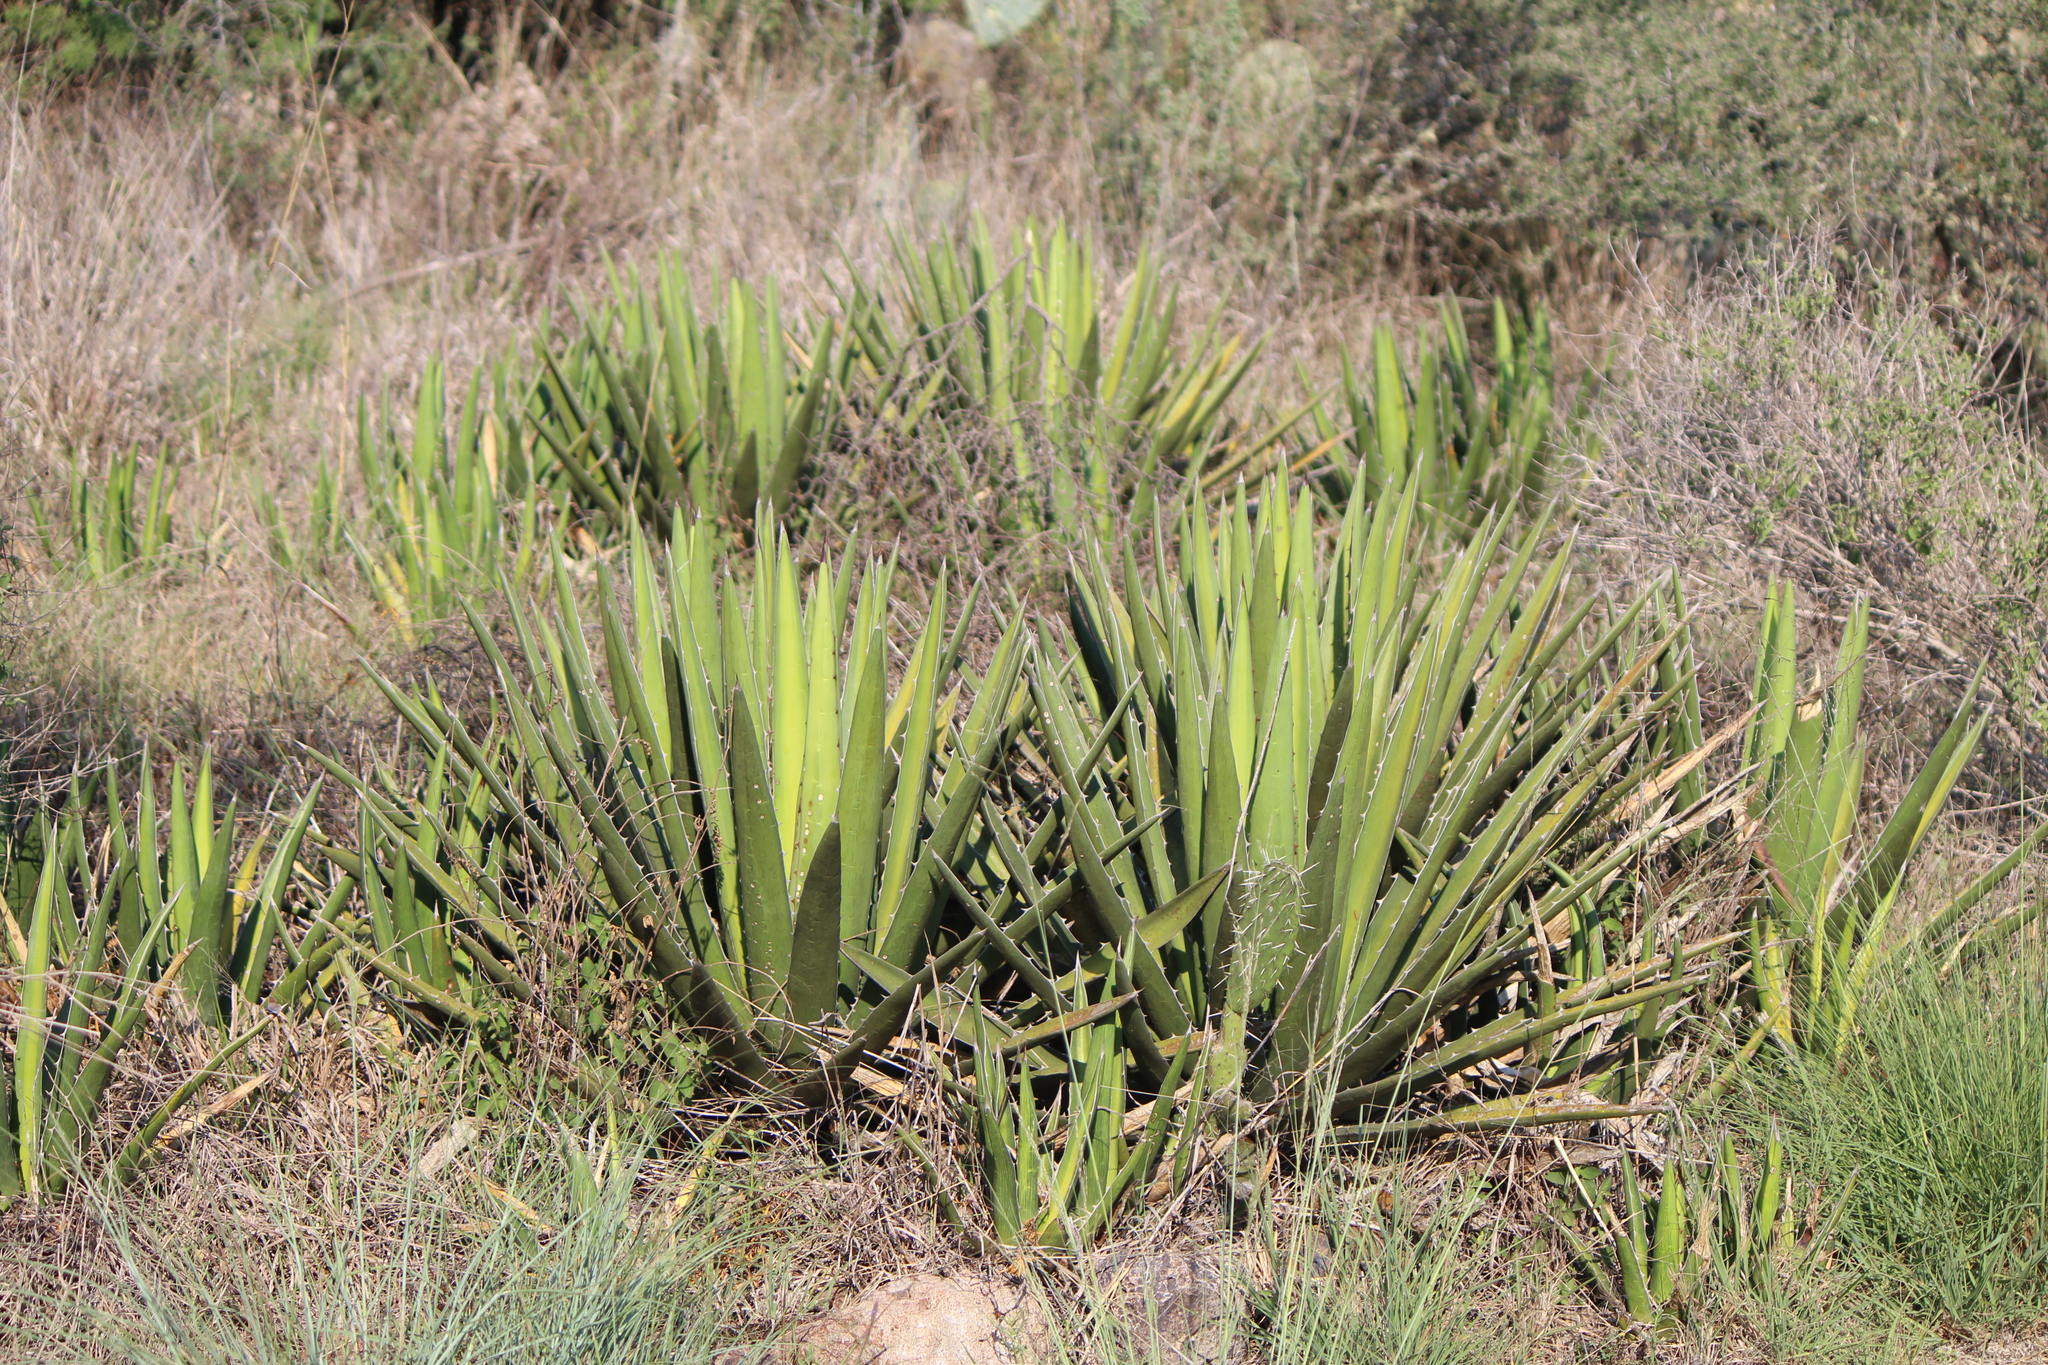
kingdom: Plantae
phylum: Tracheophyta
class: Liliopsida
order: Asparagales
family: Asparagaceae
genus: Agave
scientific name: Agave lechuguilla
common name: Lecheguilla agave
